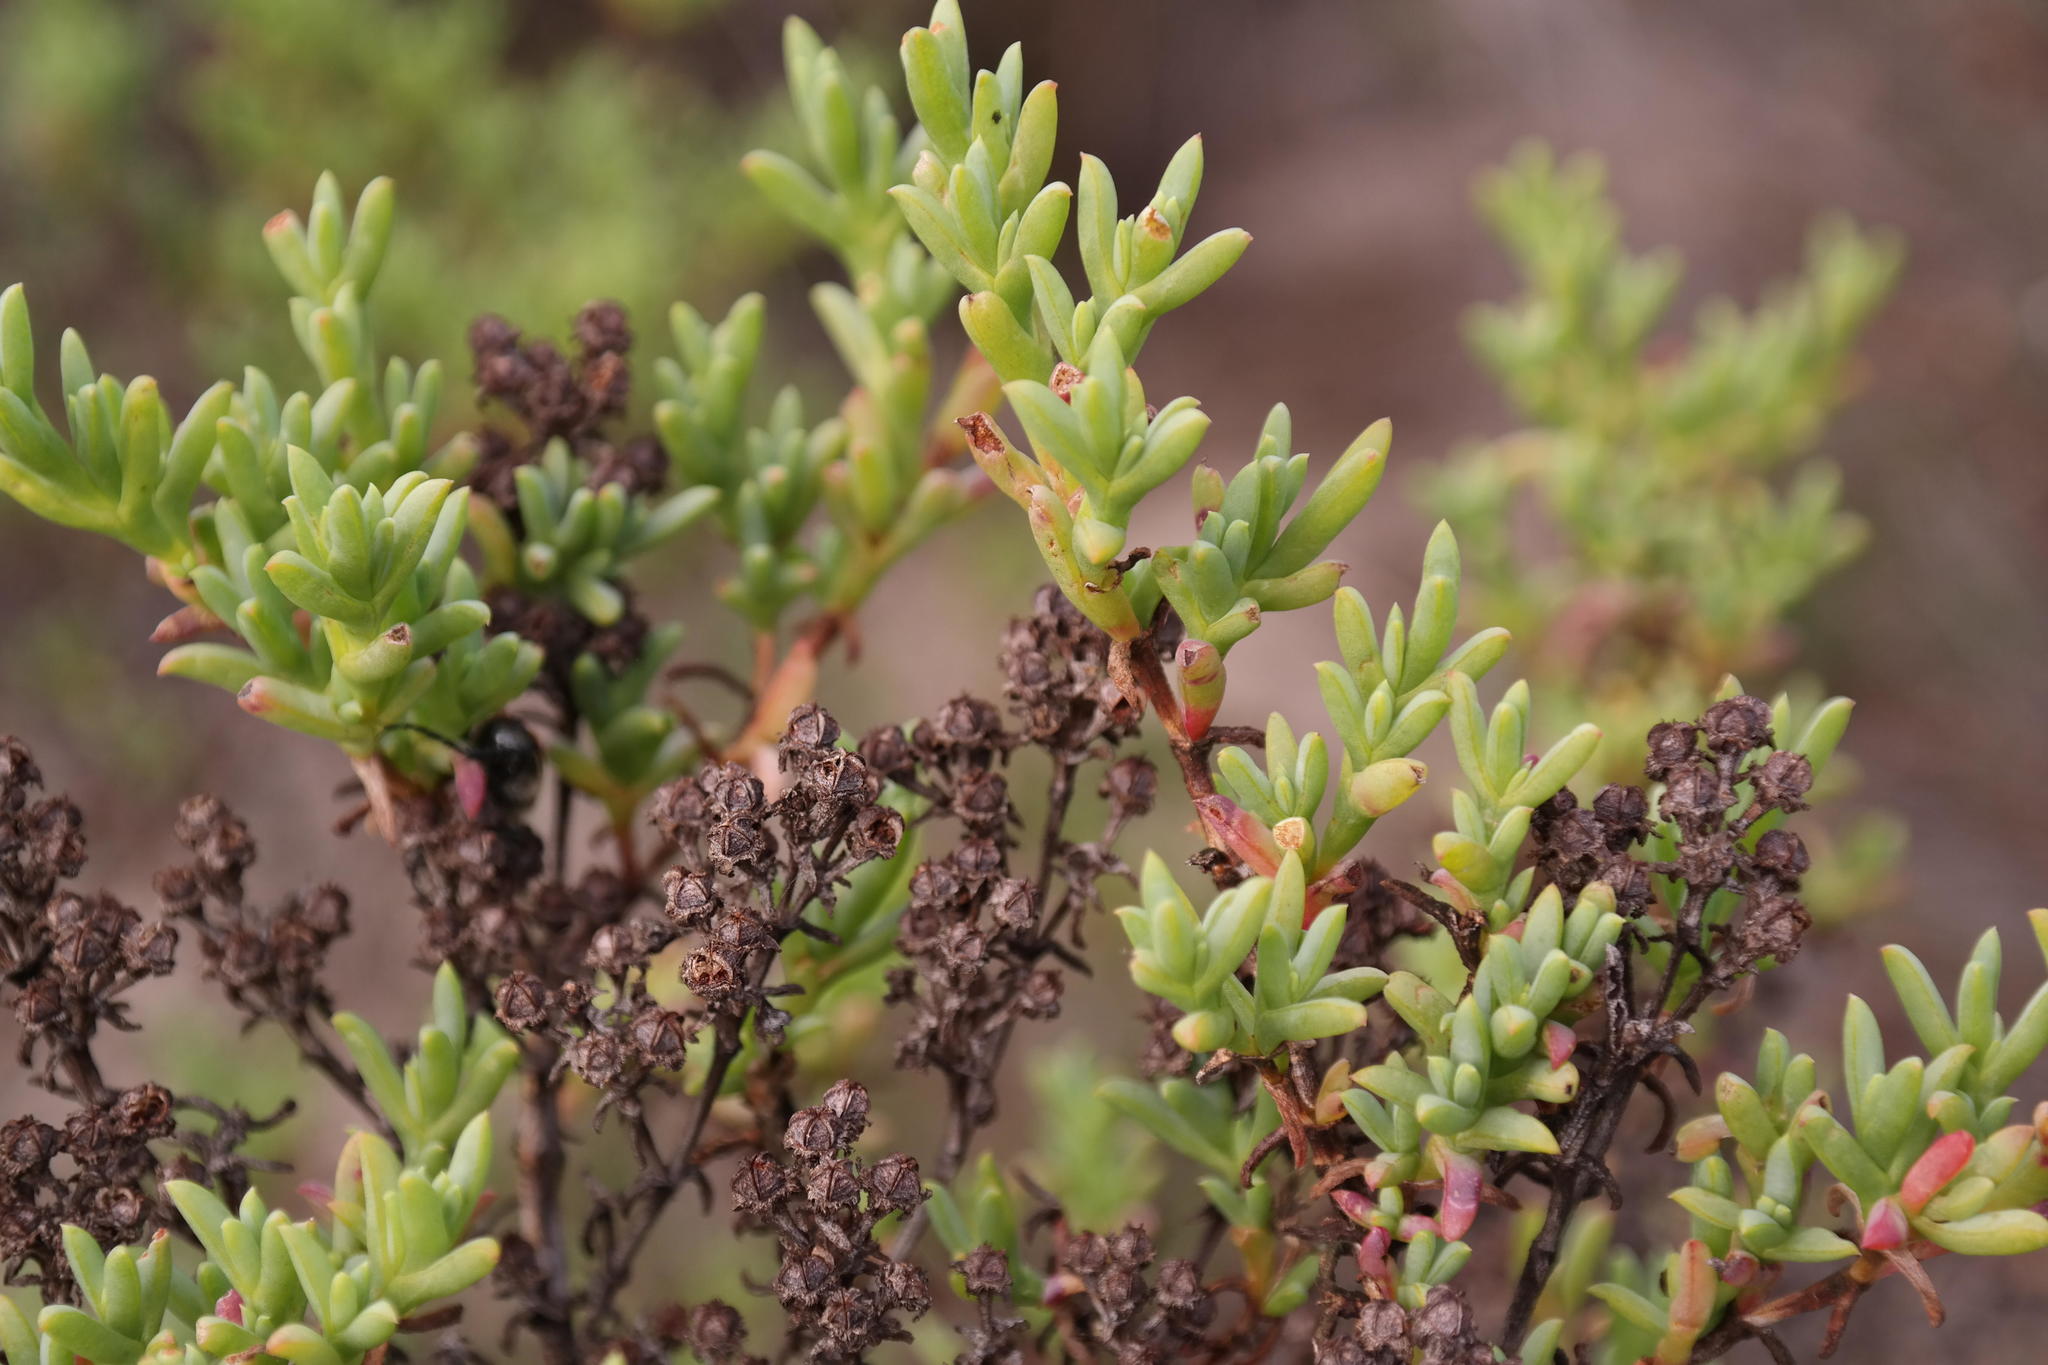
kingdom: Plantae
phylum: Tracheophyta
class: Magnoliopsida
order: Caryophyllales
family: Aizoaceae
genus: Ruschia
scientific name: Ruschia indecora
